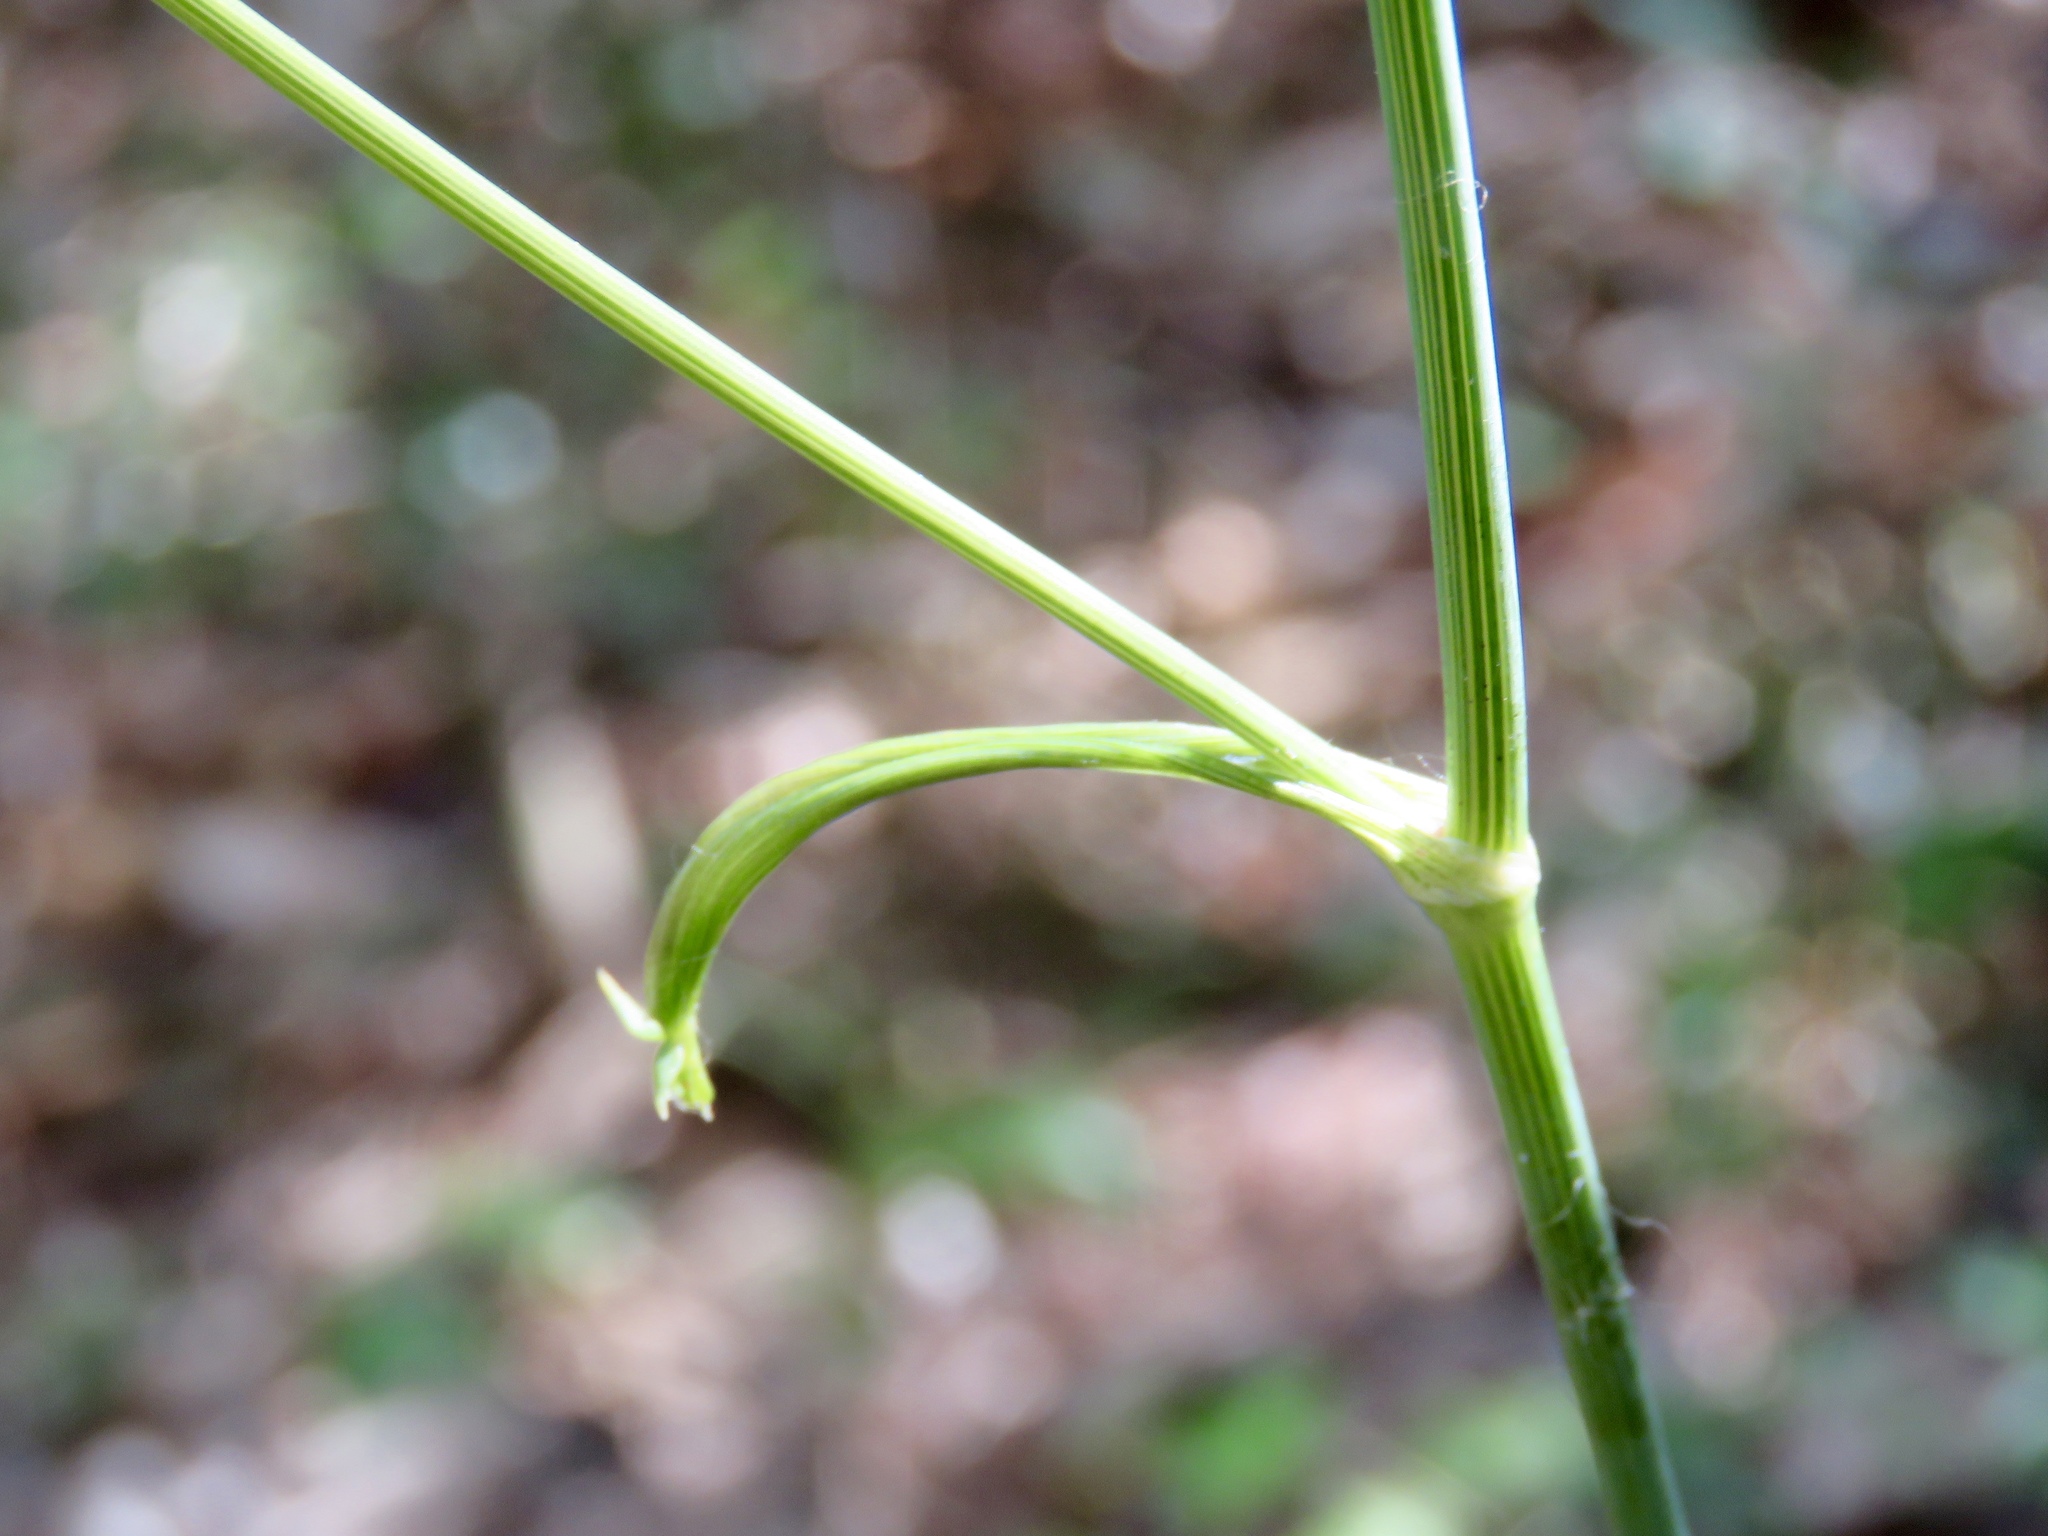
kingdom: Plantae
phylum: Tracheophyta
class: Magnoliopsida
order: Apiales
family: Apiaceae
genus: Oxypolis
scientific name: Oxypolis rigidior
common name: Cowbane
